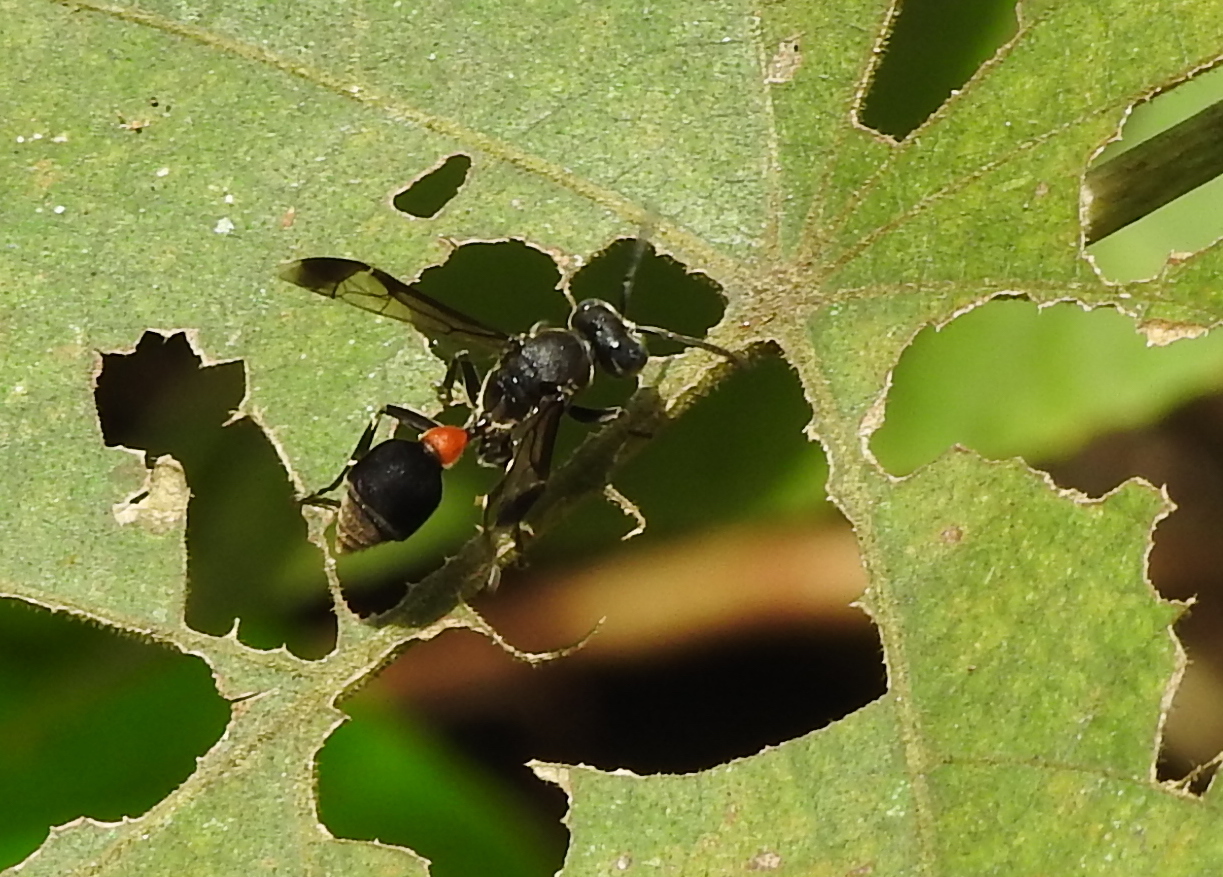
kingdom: Animalia
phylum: Arthropoda
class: Insecta
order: Hymenoptera
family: Vespidae
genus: Ropalidia
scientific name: Ropalidia sumatrae
